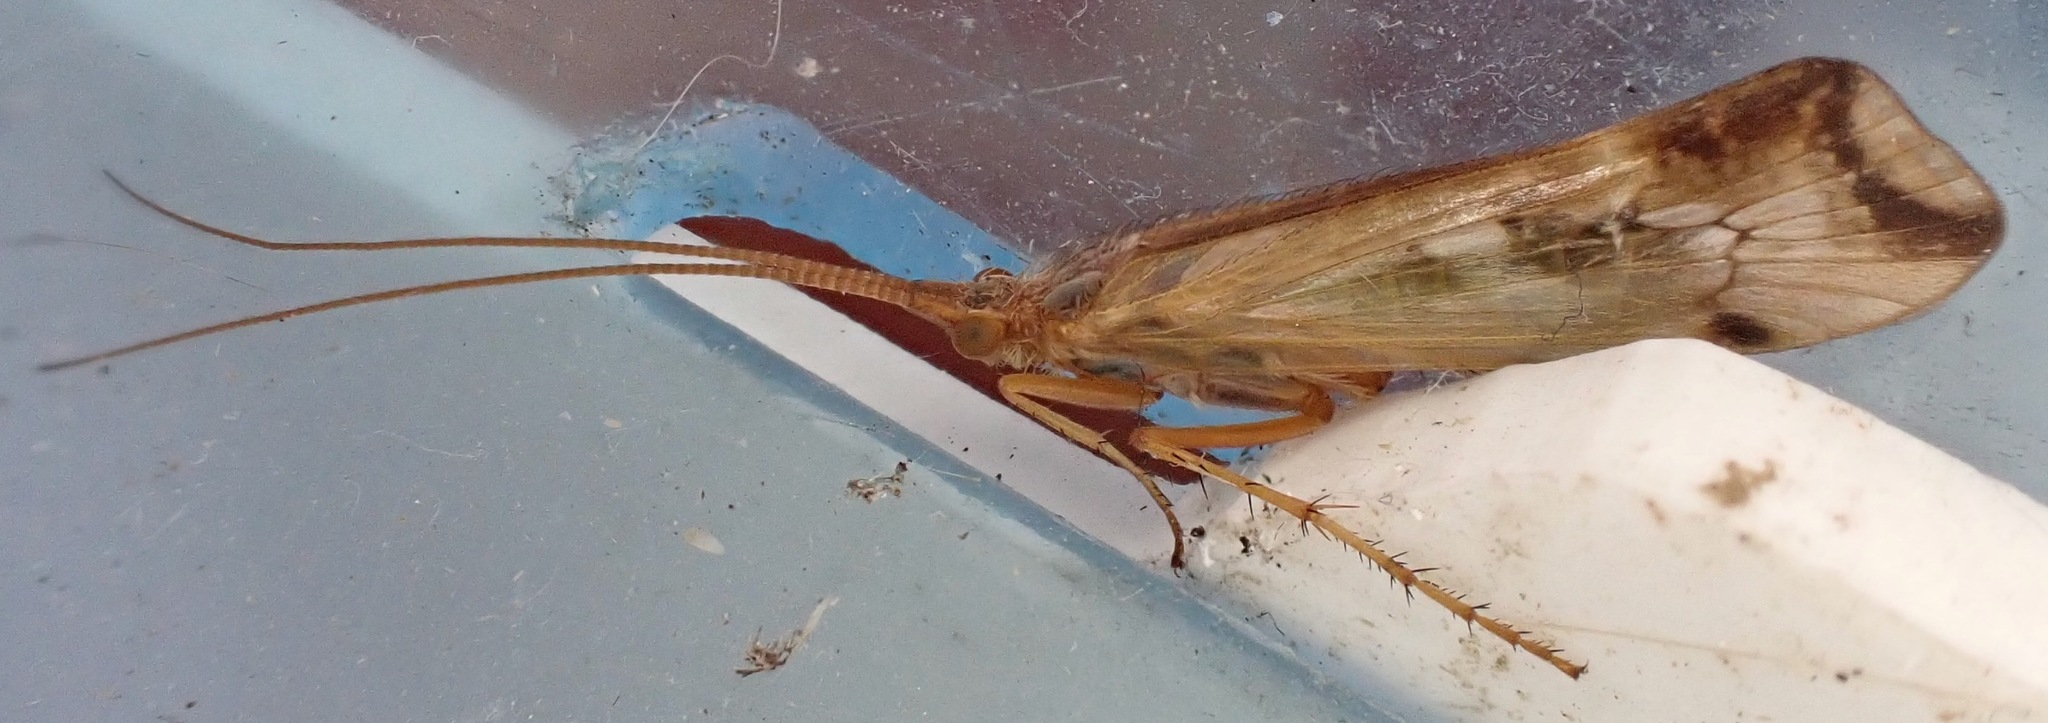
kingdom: Animalia
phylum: Arthropoda
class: Insecta
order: Trichoptera
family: Limnephilidae
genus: Limnephilus
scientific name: Limnephilus lunatus
